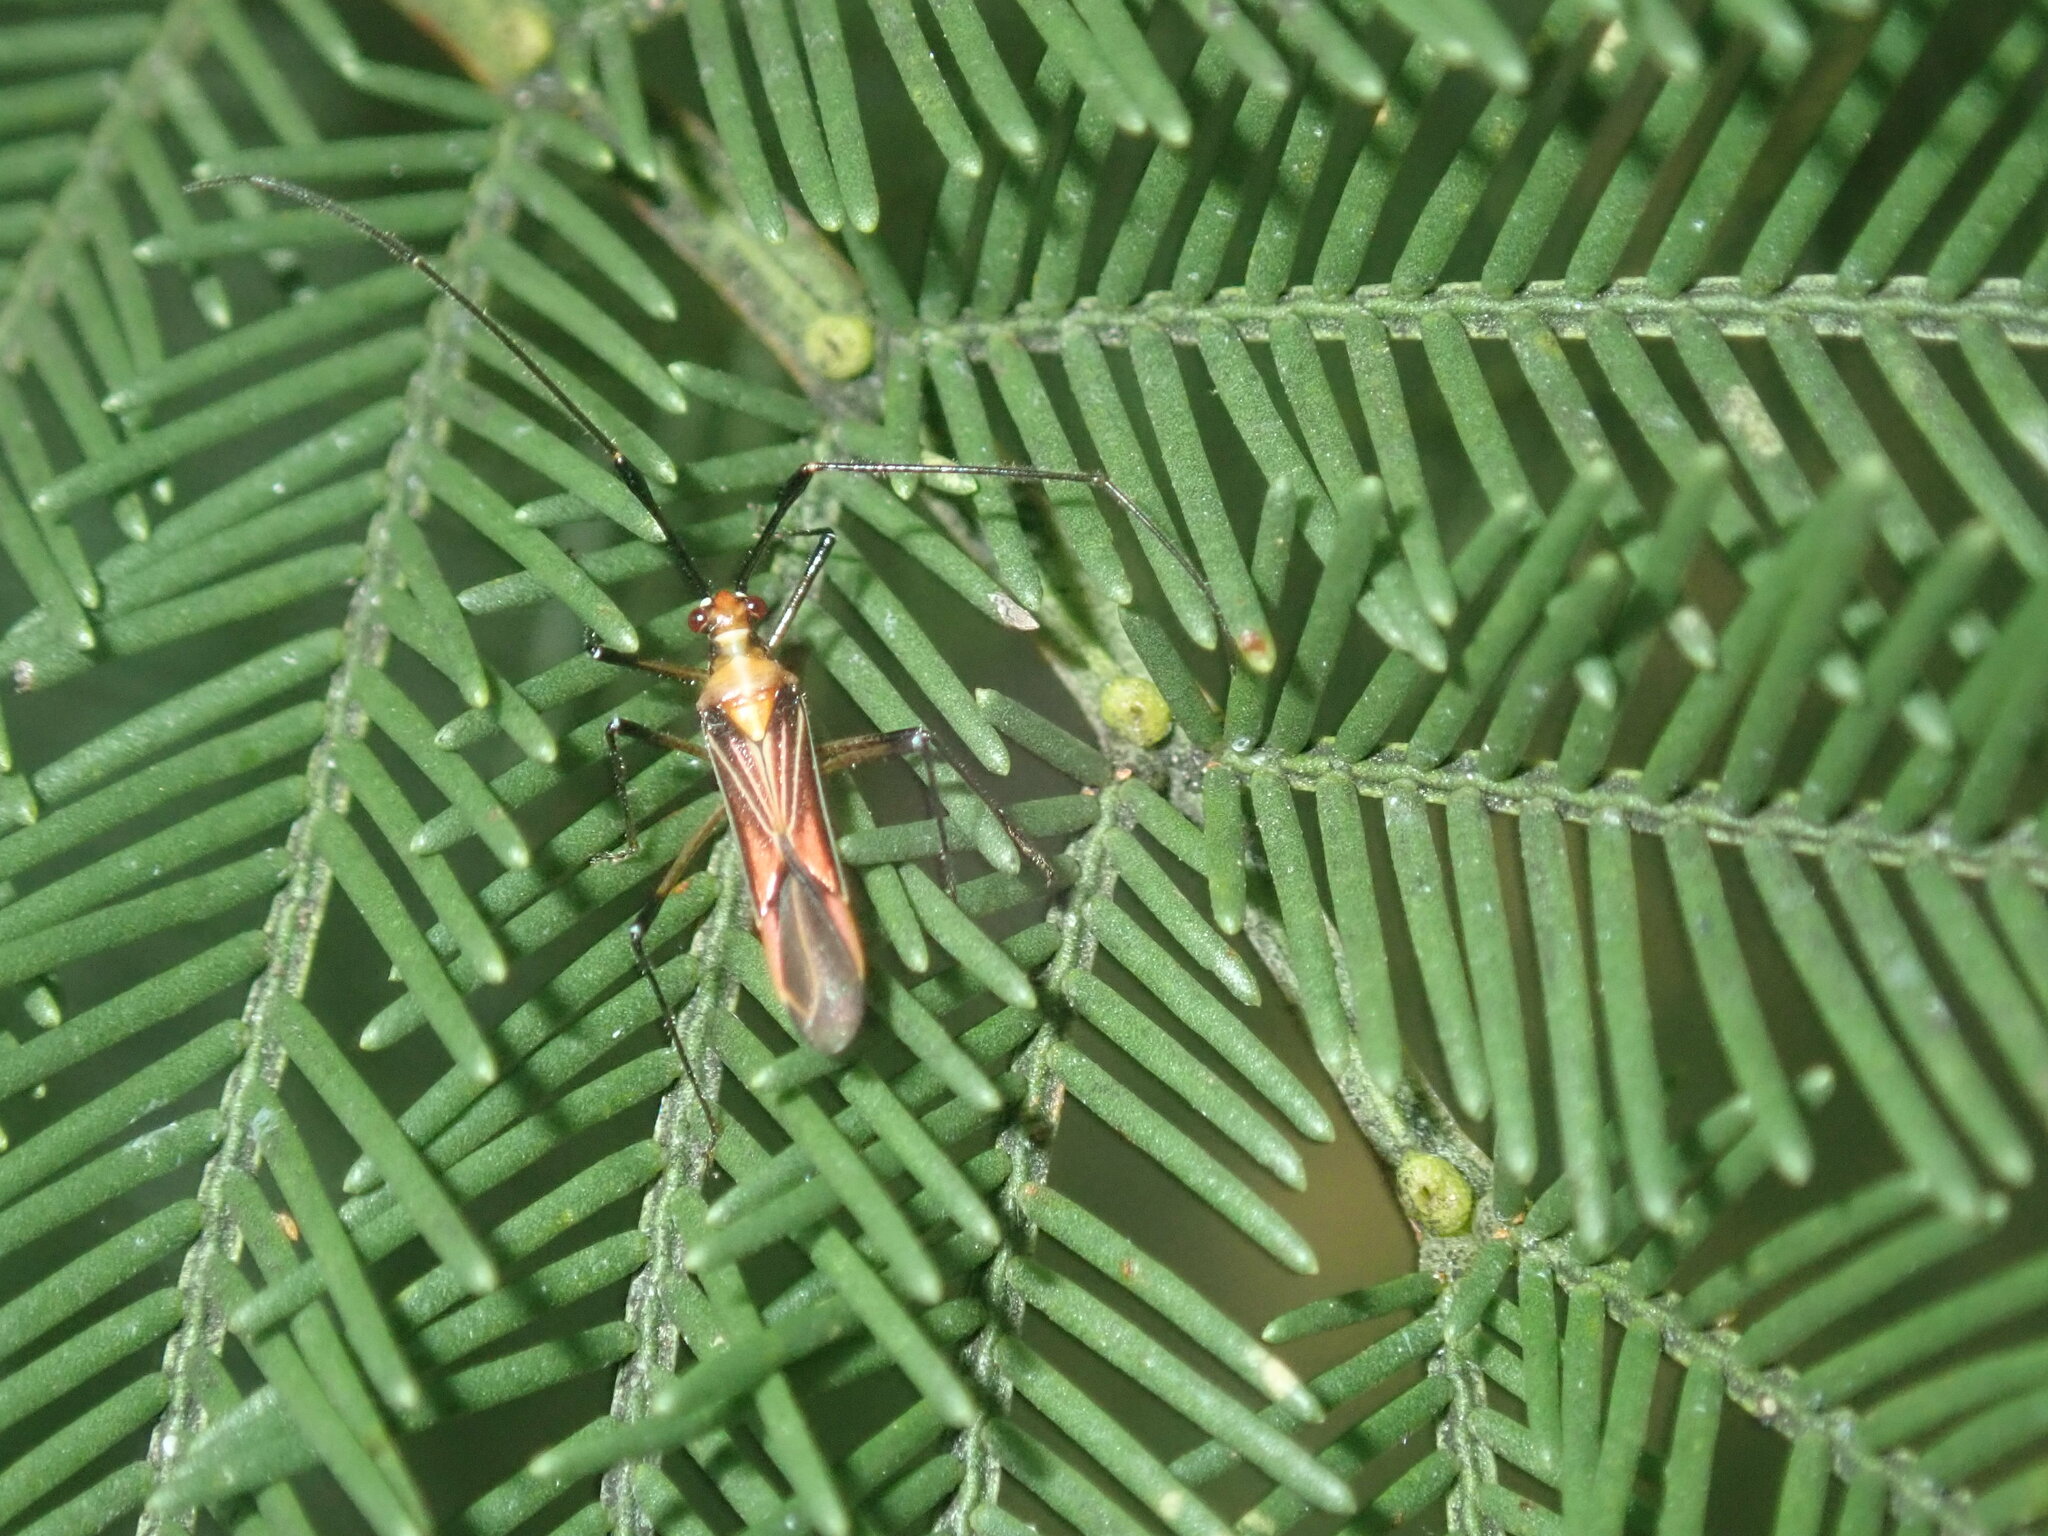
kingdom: Animalia
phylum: Arthropoda
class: Insecta
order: Hemiptera
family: Miridae
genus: Rayieria
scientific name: Rayieria
